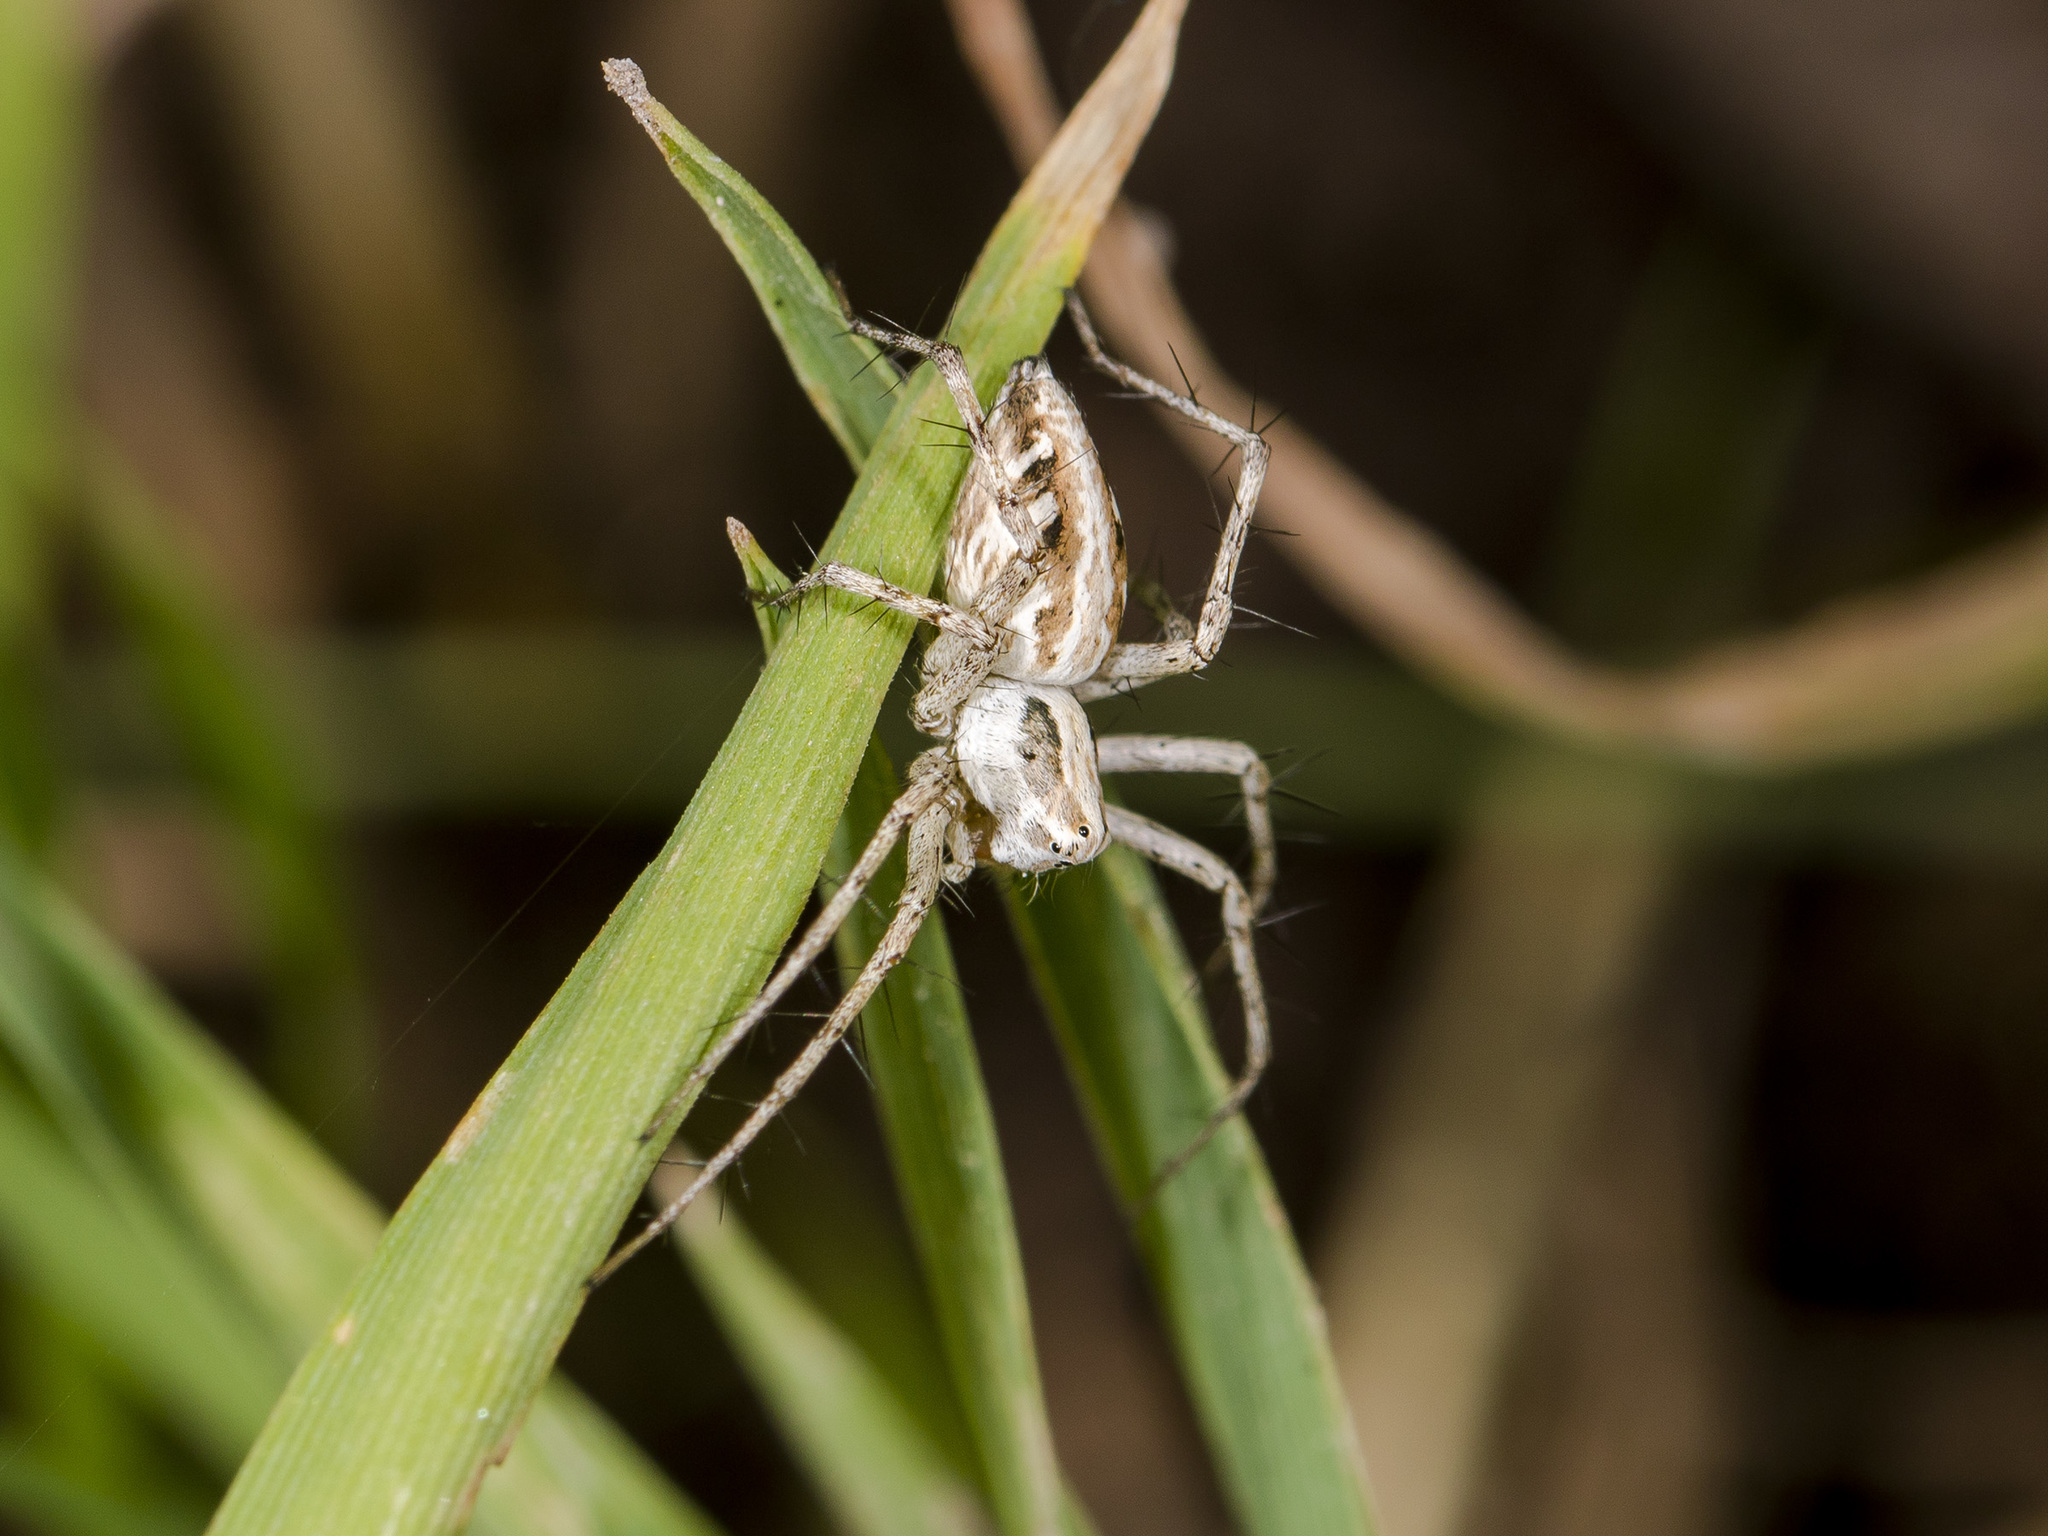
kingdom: Animalia
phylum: Arthropoda
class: Arachnida
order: Araneae
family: Oxyopidae
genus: Oxyopes
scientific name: Oxyopes globifer
